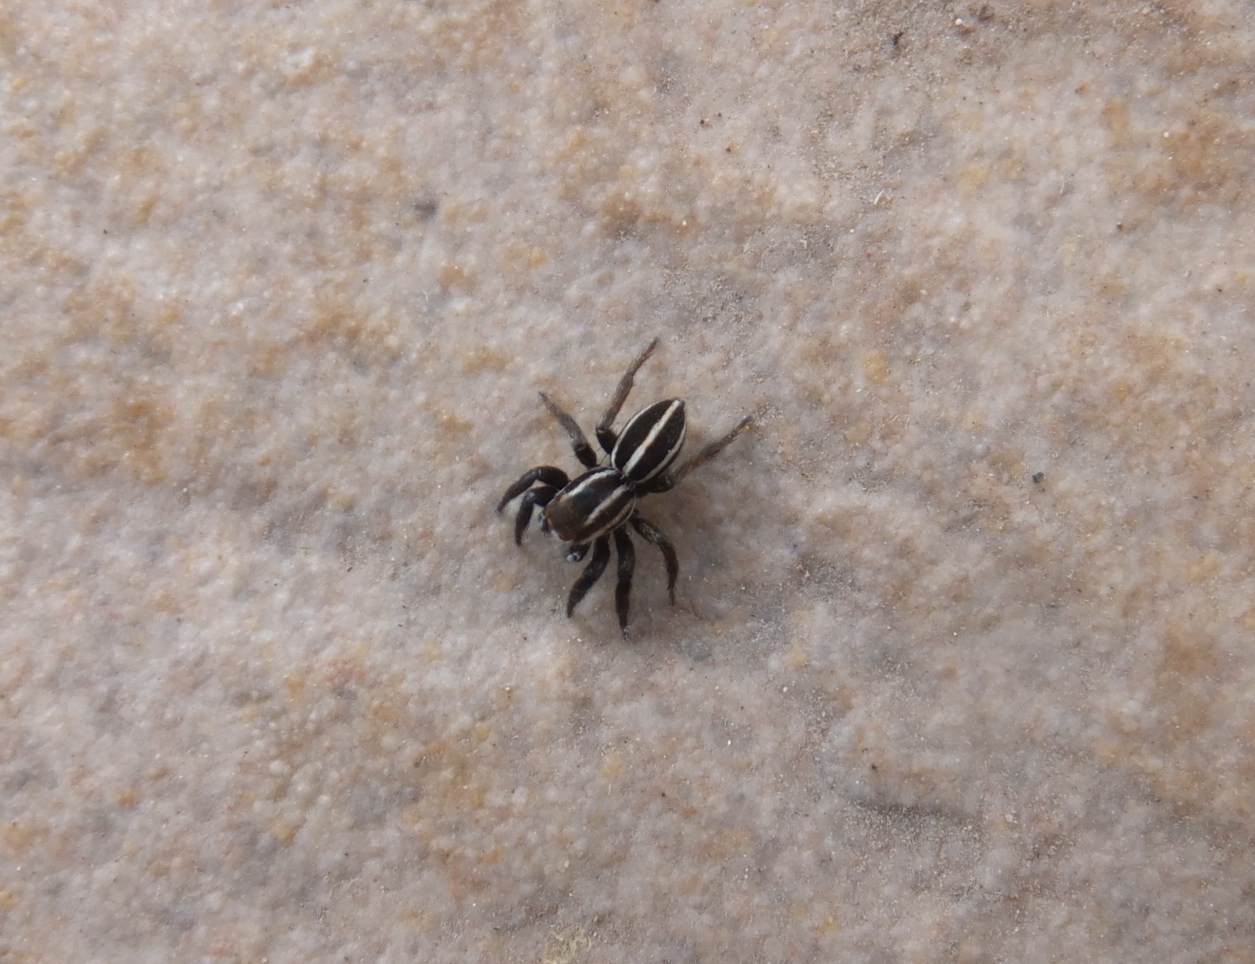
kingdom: Animalia
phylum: Arthropoda
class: Arachnida
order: Araneae
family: Salticidae
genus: Phlegra
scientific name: Phlegra bresnieri
